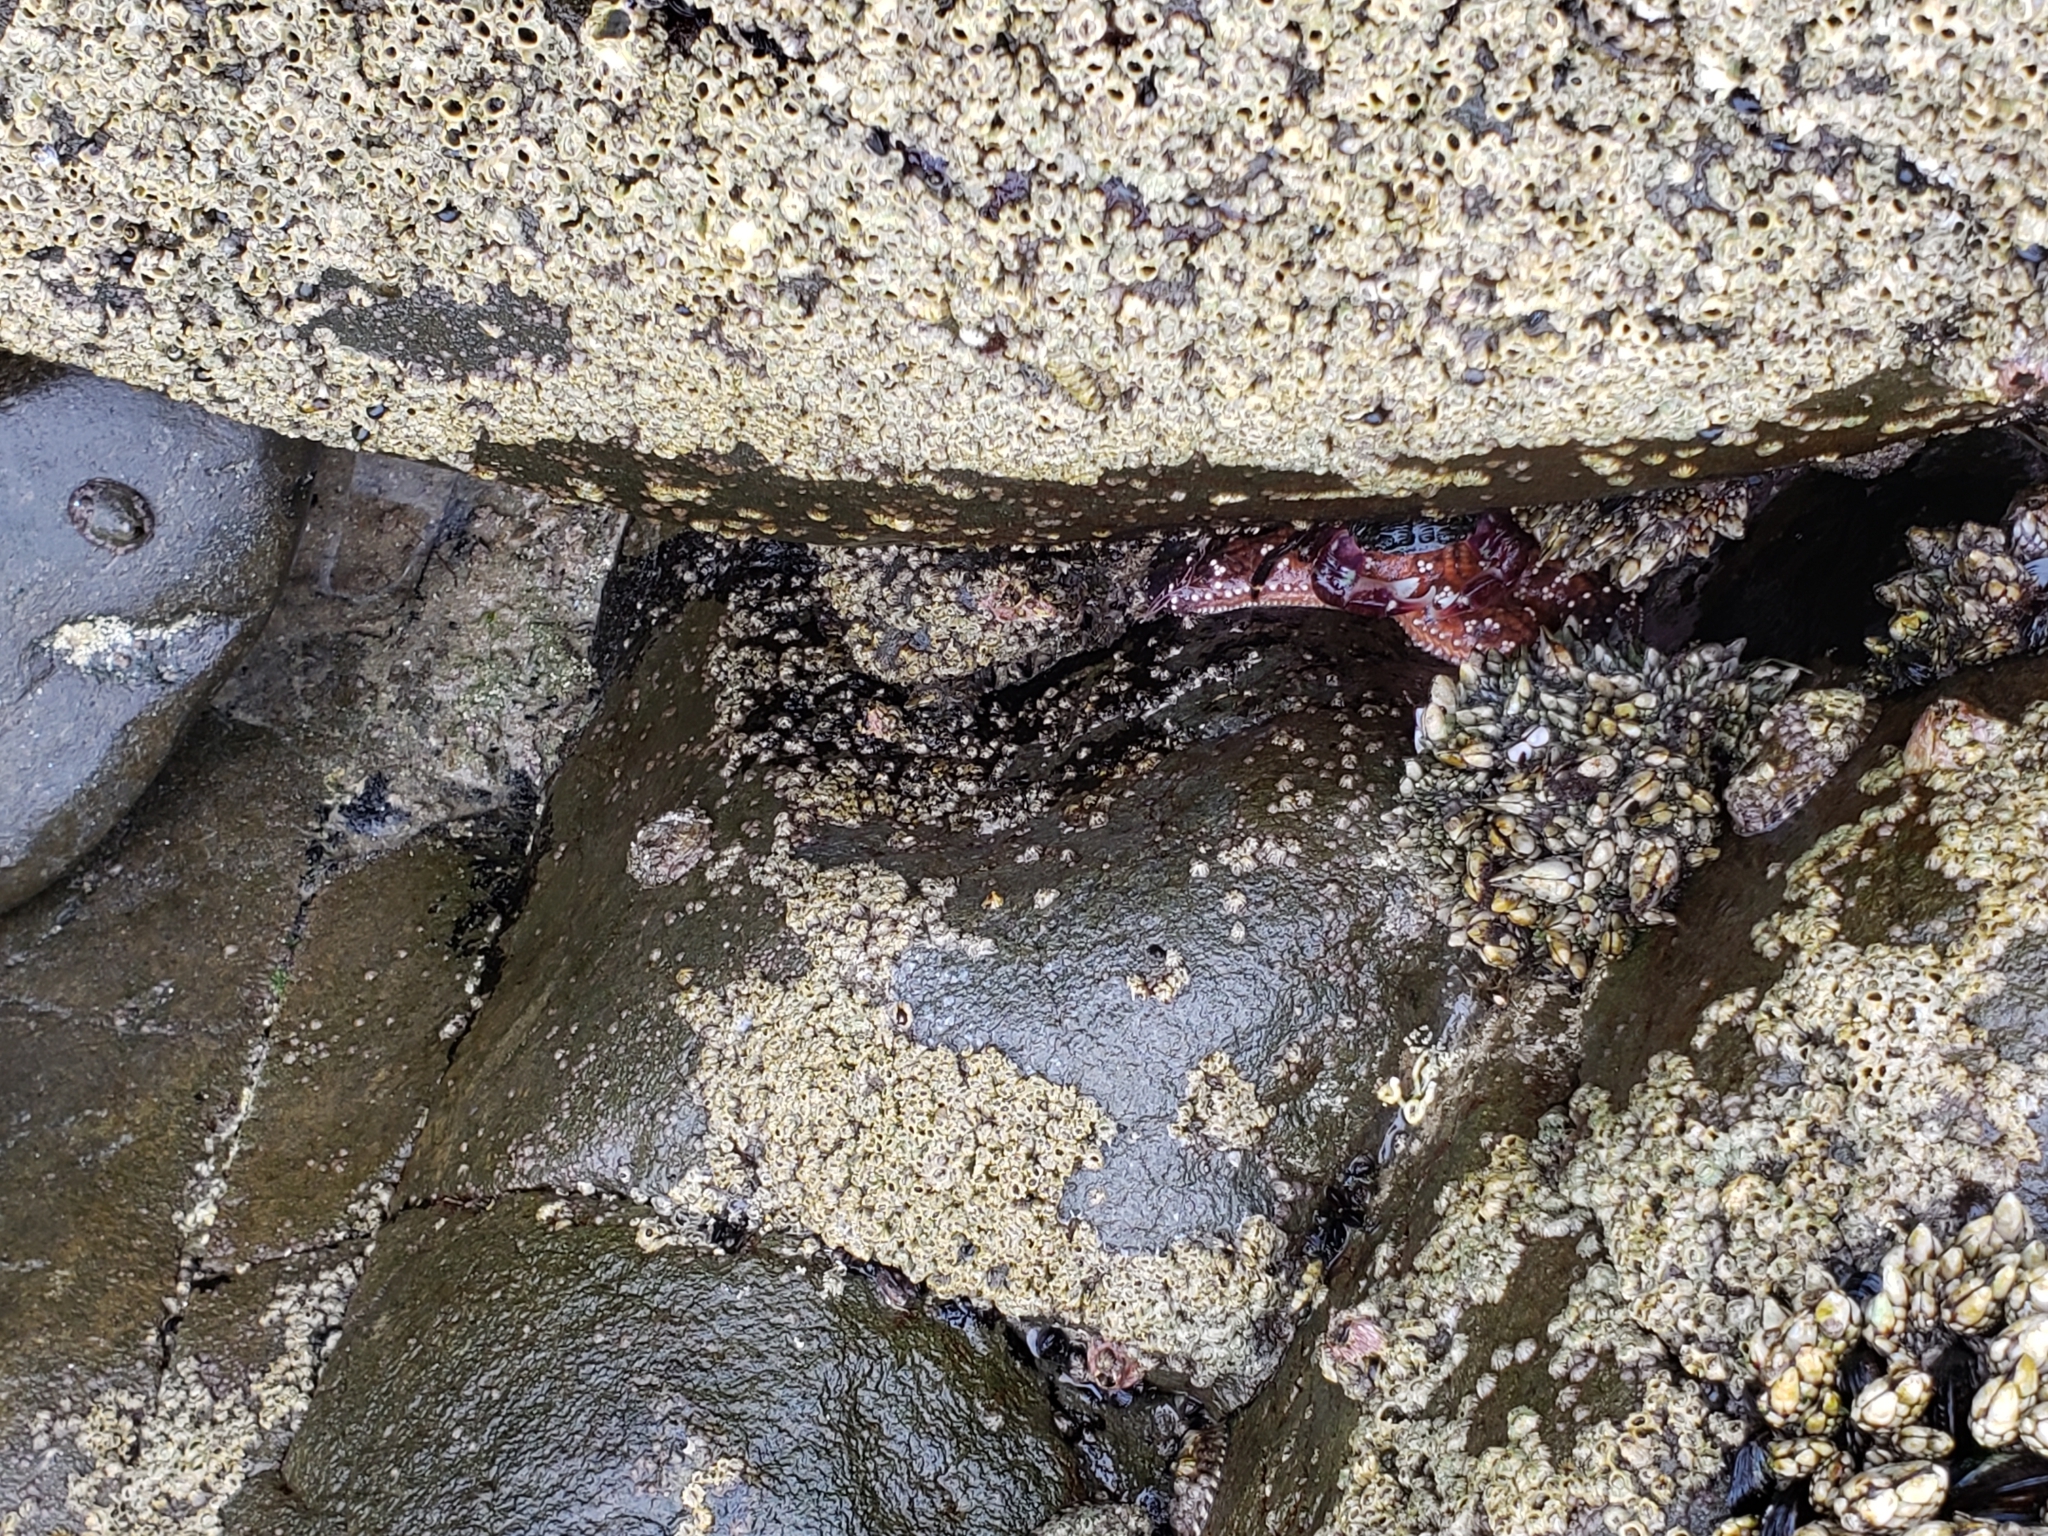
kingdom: Animalia
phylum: Echinodermata
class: Asteroidea
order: Forcipulatida
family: Asteriidae
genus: Pisaster
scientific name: Pisaster ochraceus
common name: Ochre stars
